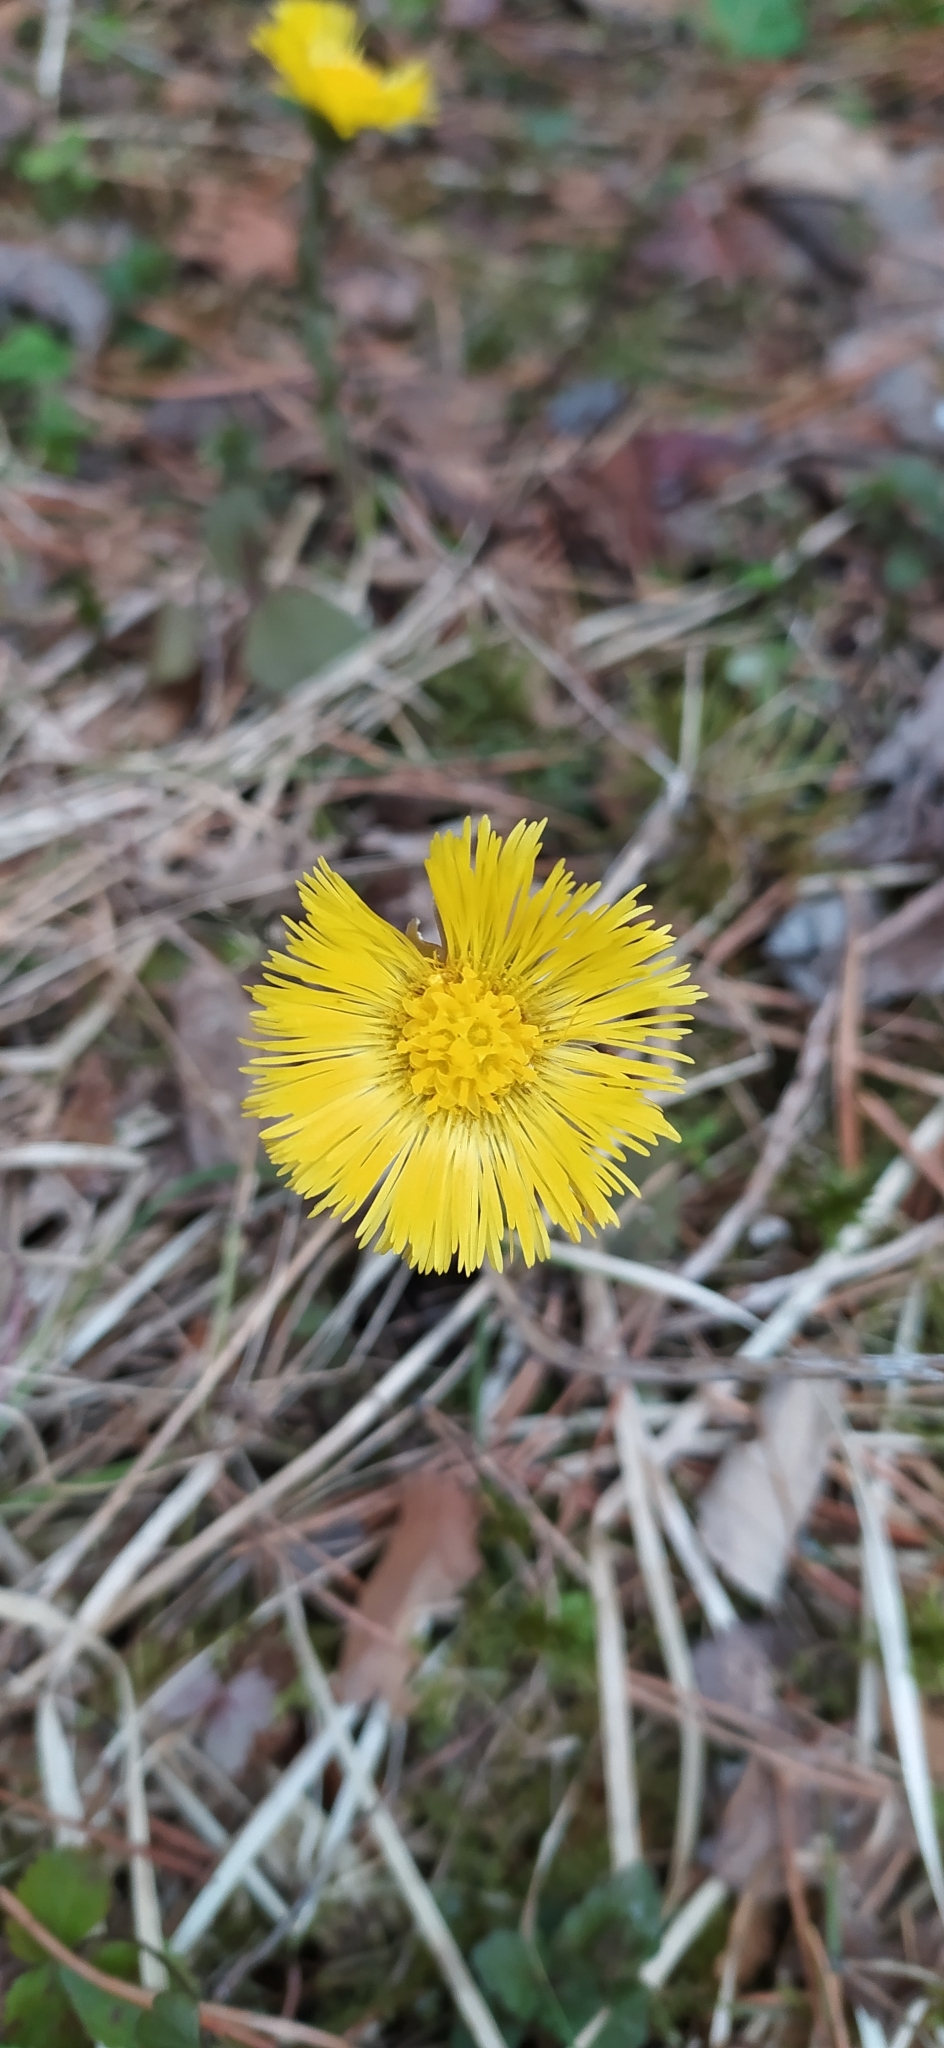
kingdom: Plantae
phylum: Tracheophyta
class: Magnoliopsida
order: Asterales
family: Asteraceae
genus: Tussilago
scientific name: Tussilago farfara
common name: Coltsfoot
